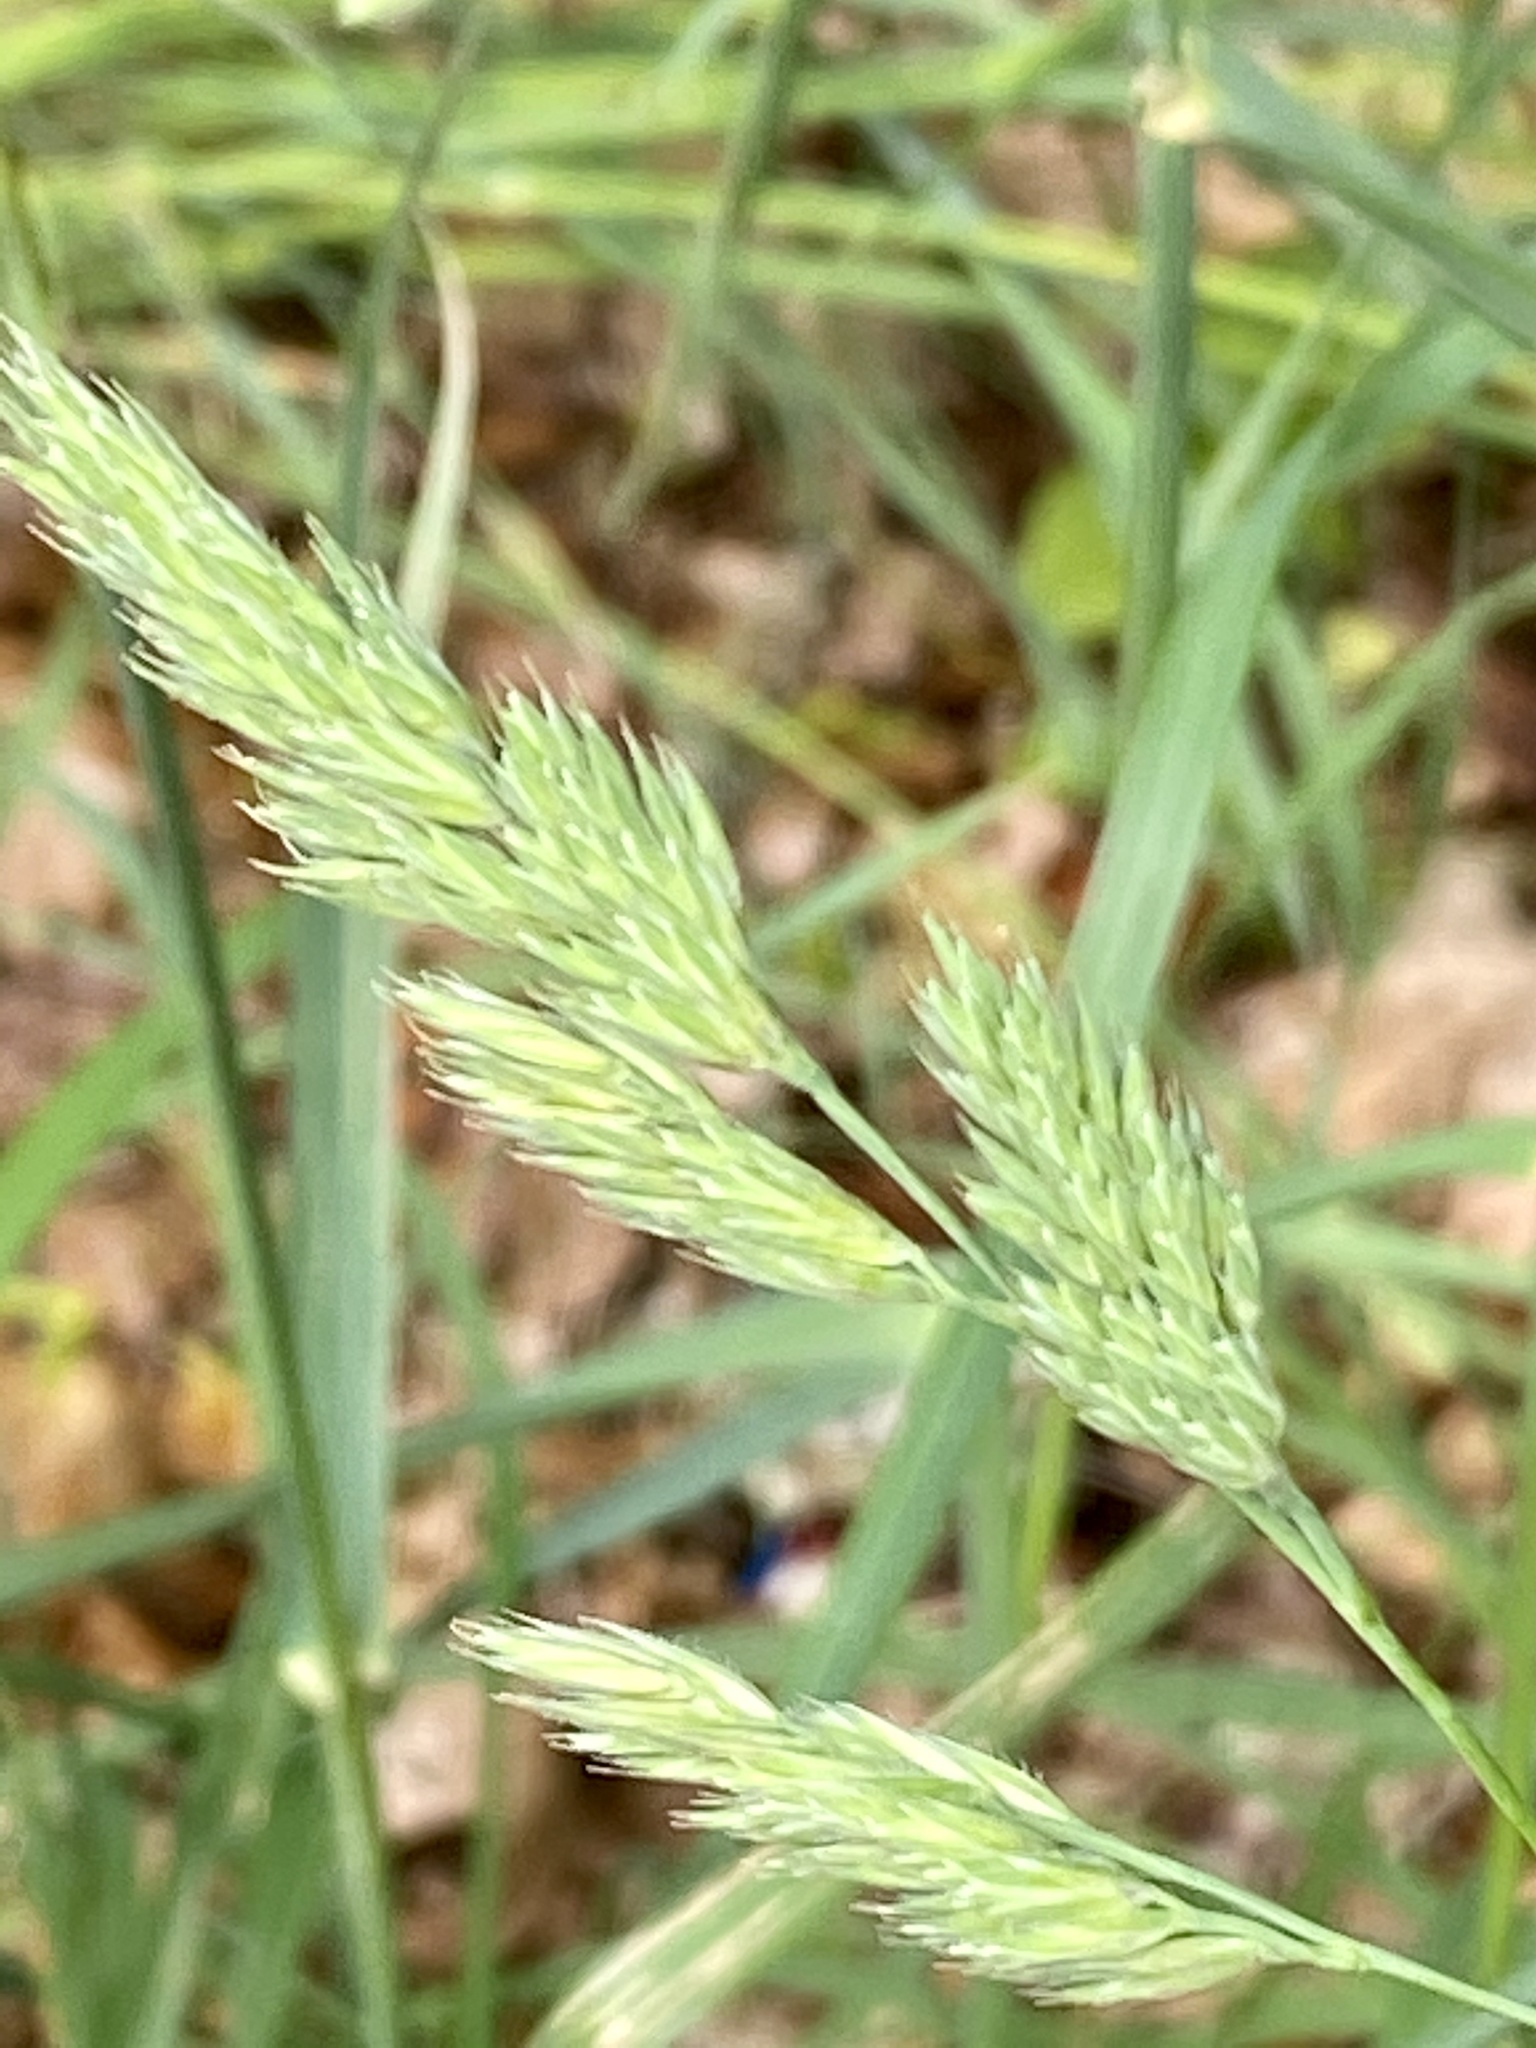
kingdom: Plantae
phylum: Tracheophyta
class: Liliopsida
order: Poales
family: Poaceae
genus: Dactylis
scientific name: Dactylis glomerata
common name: Orchardgrass
